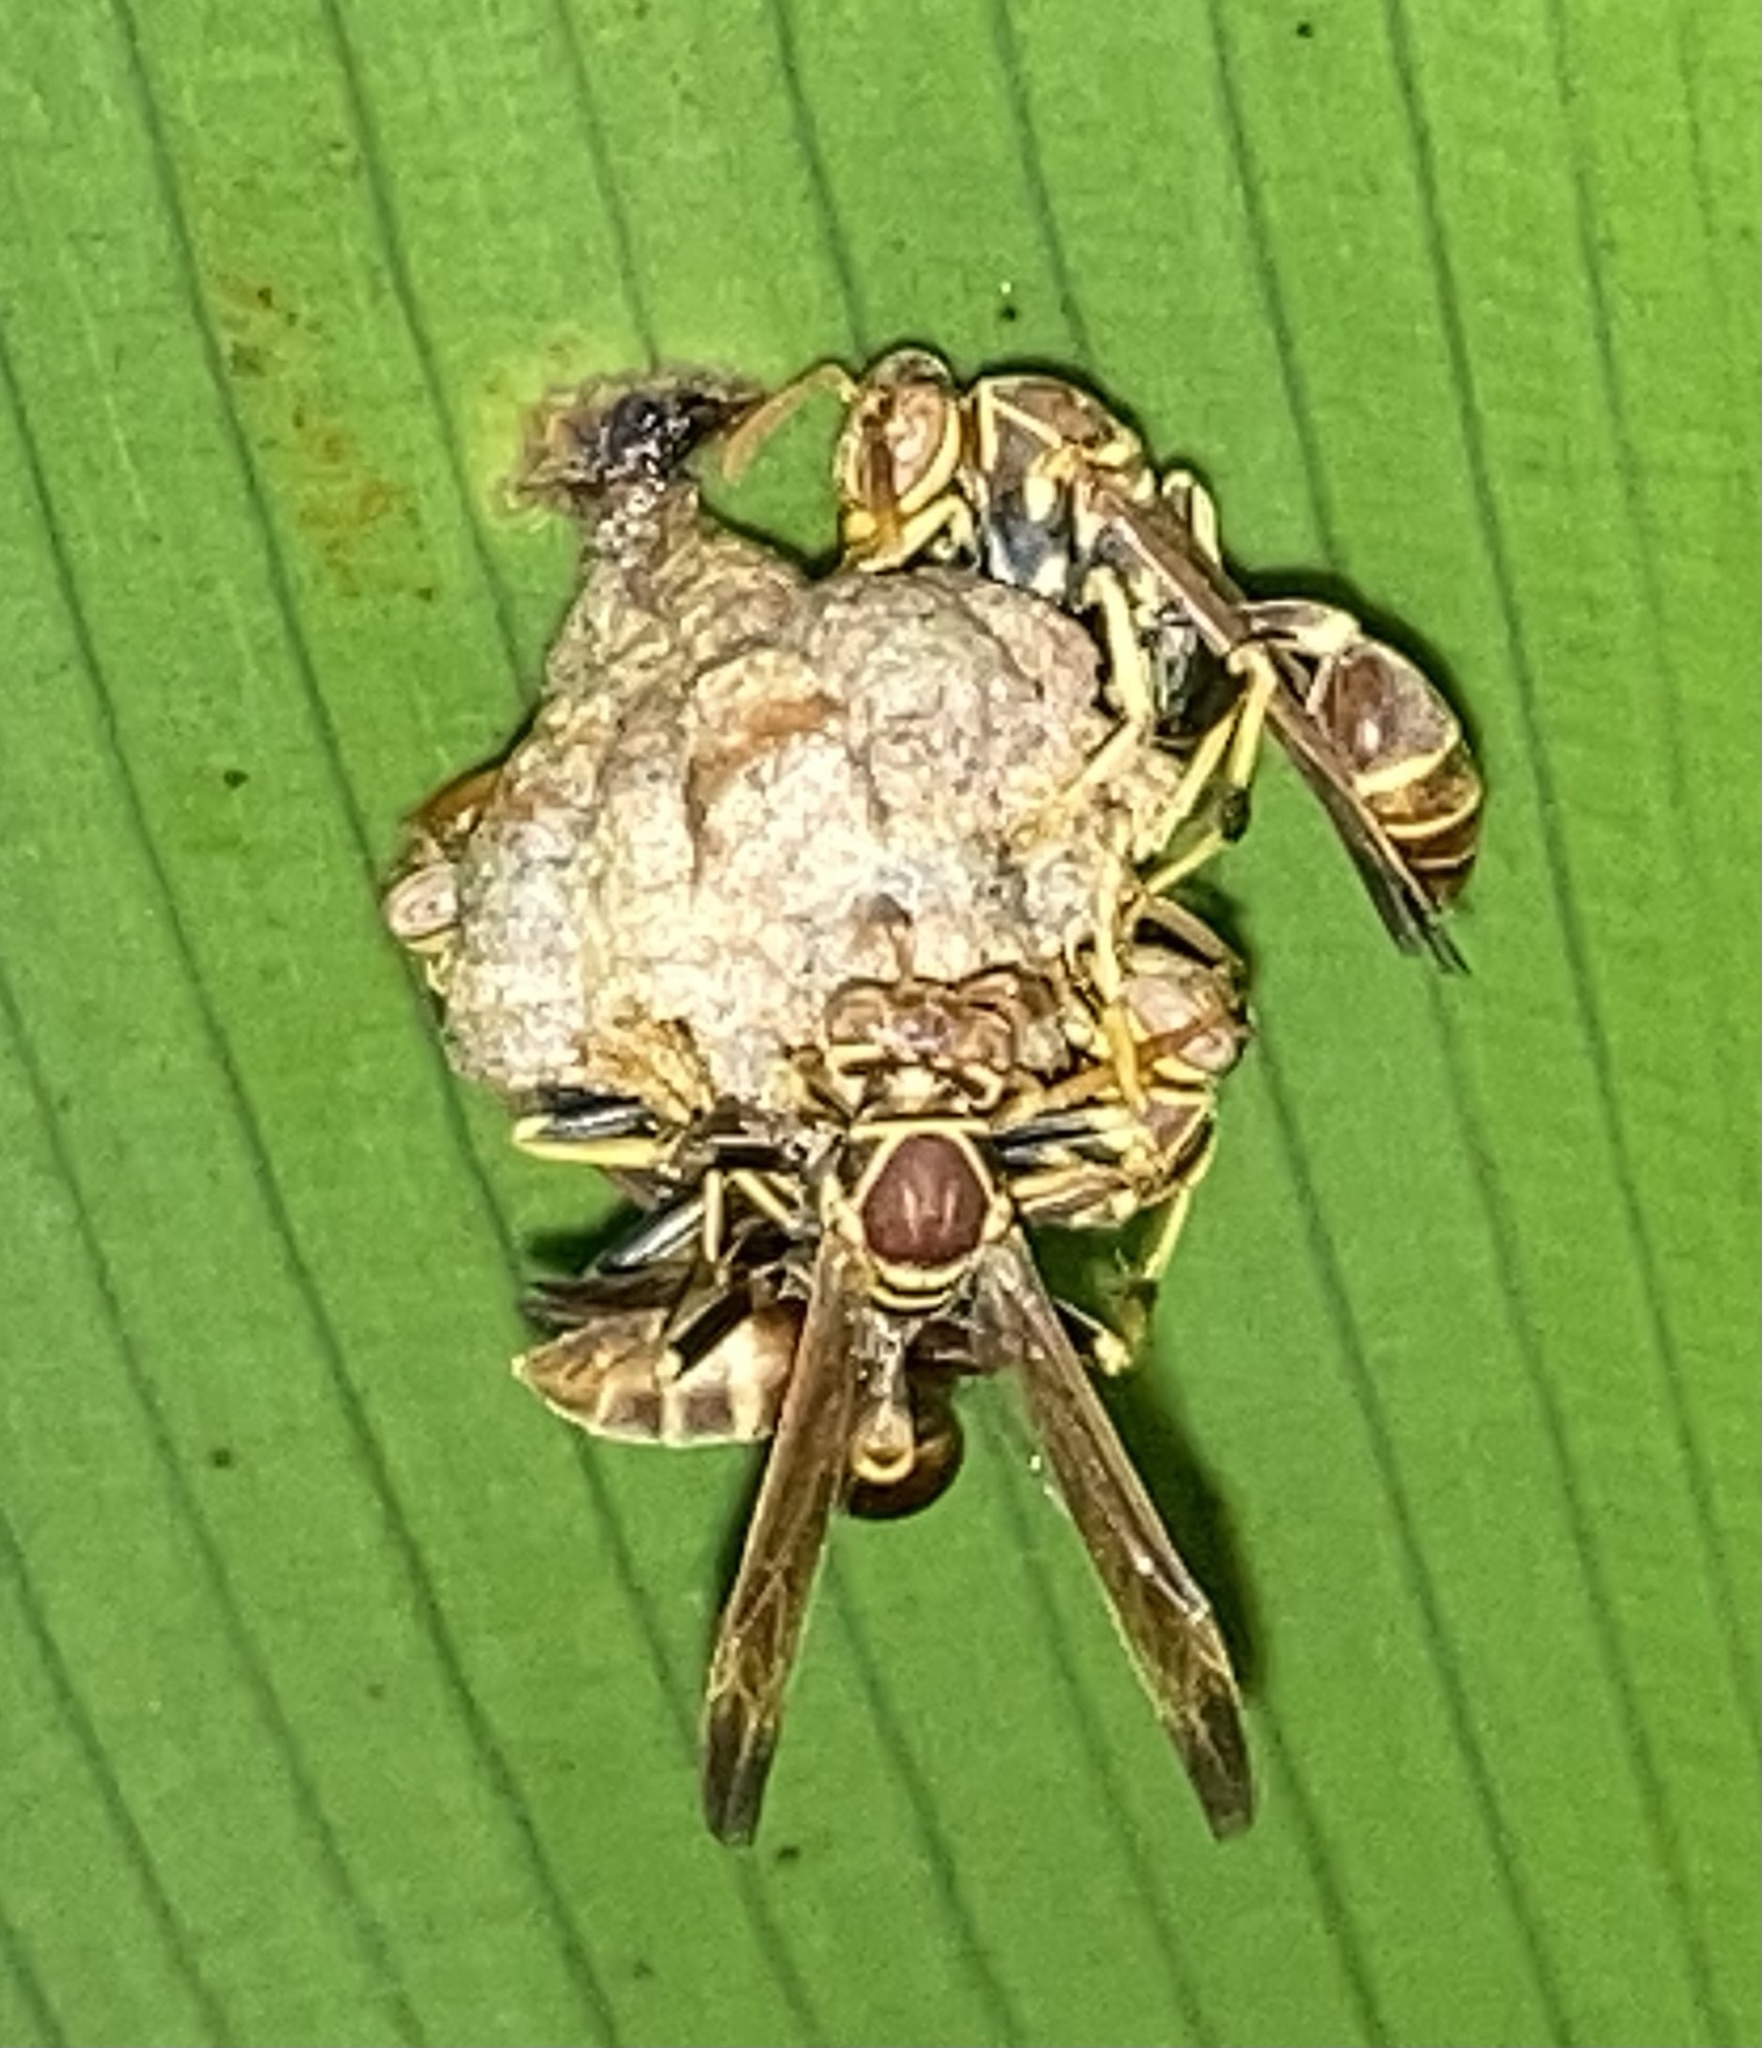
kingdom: Animalia
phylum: Arthropoda
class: Insecta
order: Hymenoptera
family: Vespidae
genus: Mischocyttarus
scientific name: Mischocyttarus mexicanus
